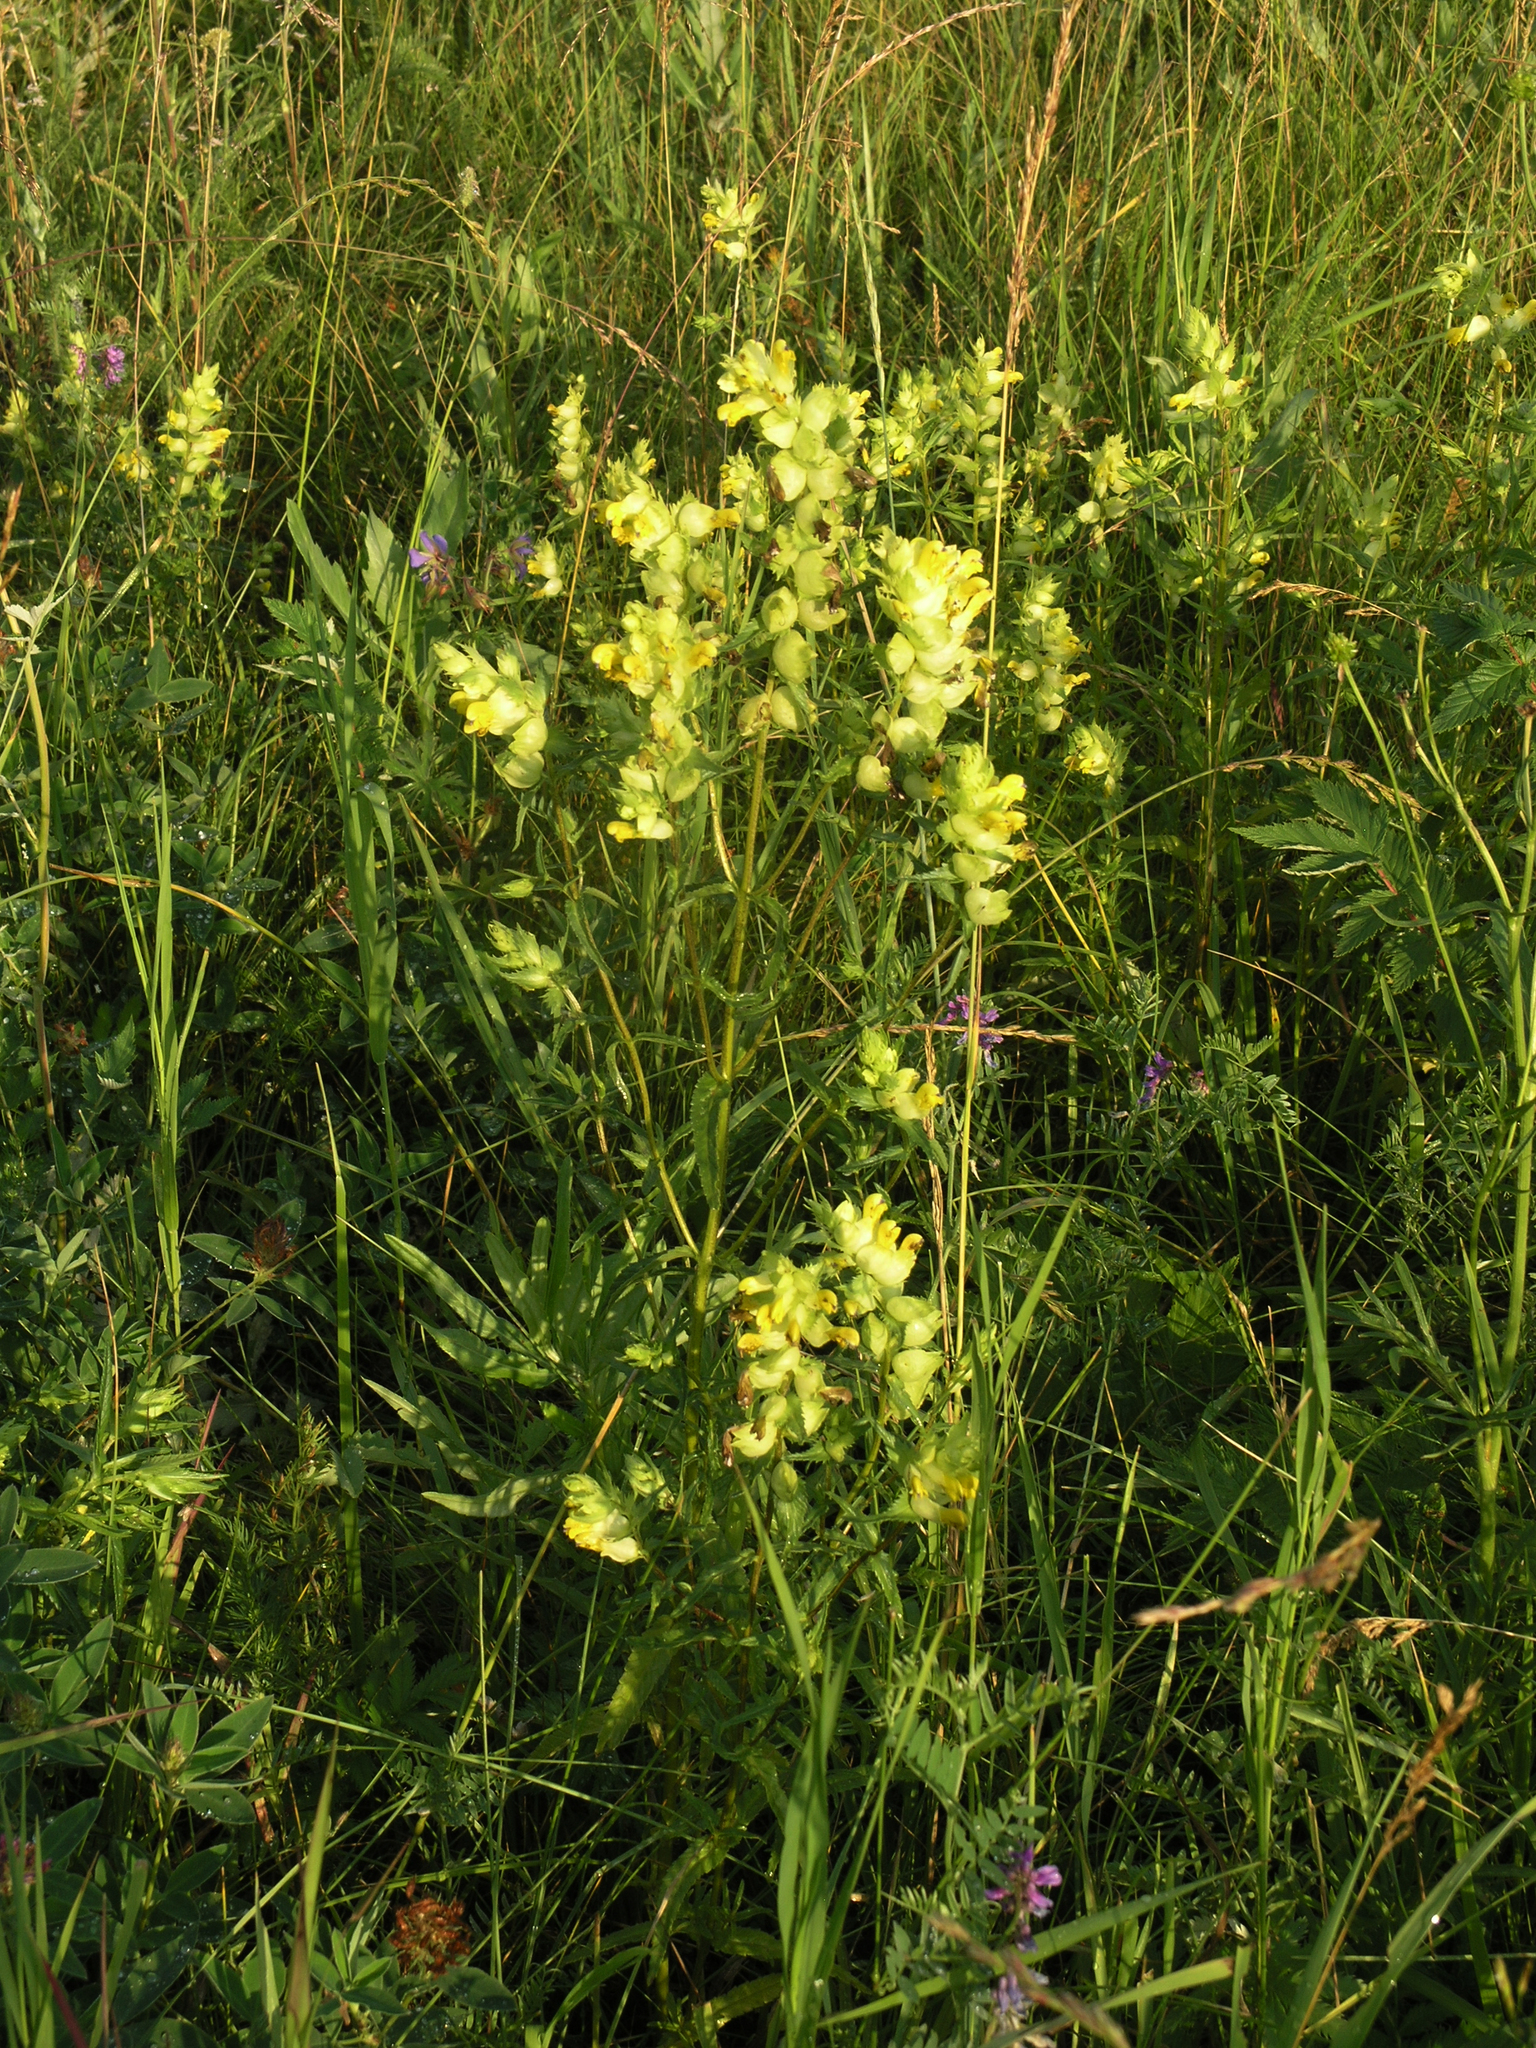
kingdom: Plantae
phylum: Tracheophyta
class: Magnoliopsida
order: Lamiales
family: Orobanchaceae
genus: Rhinanthus
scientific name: Rhinanthus serotinus
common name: Late-flowering yellow rattle
